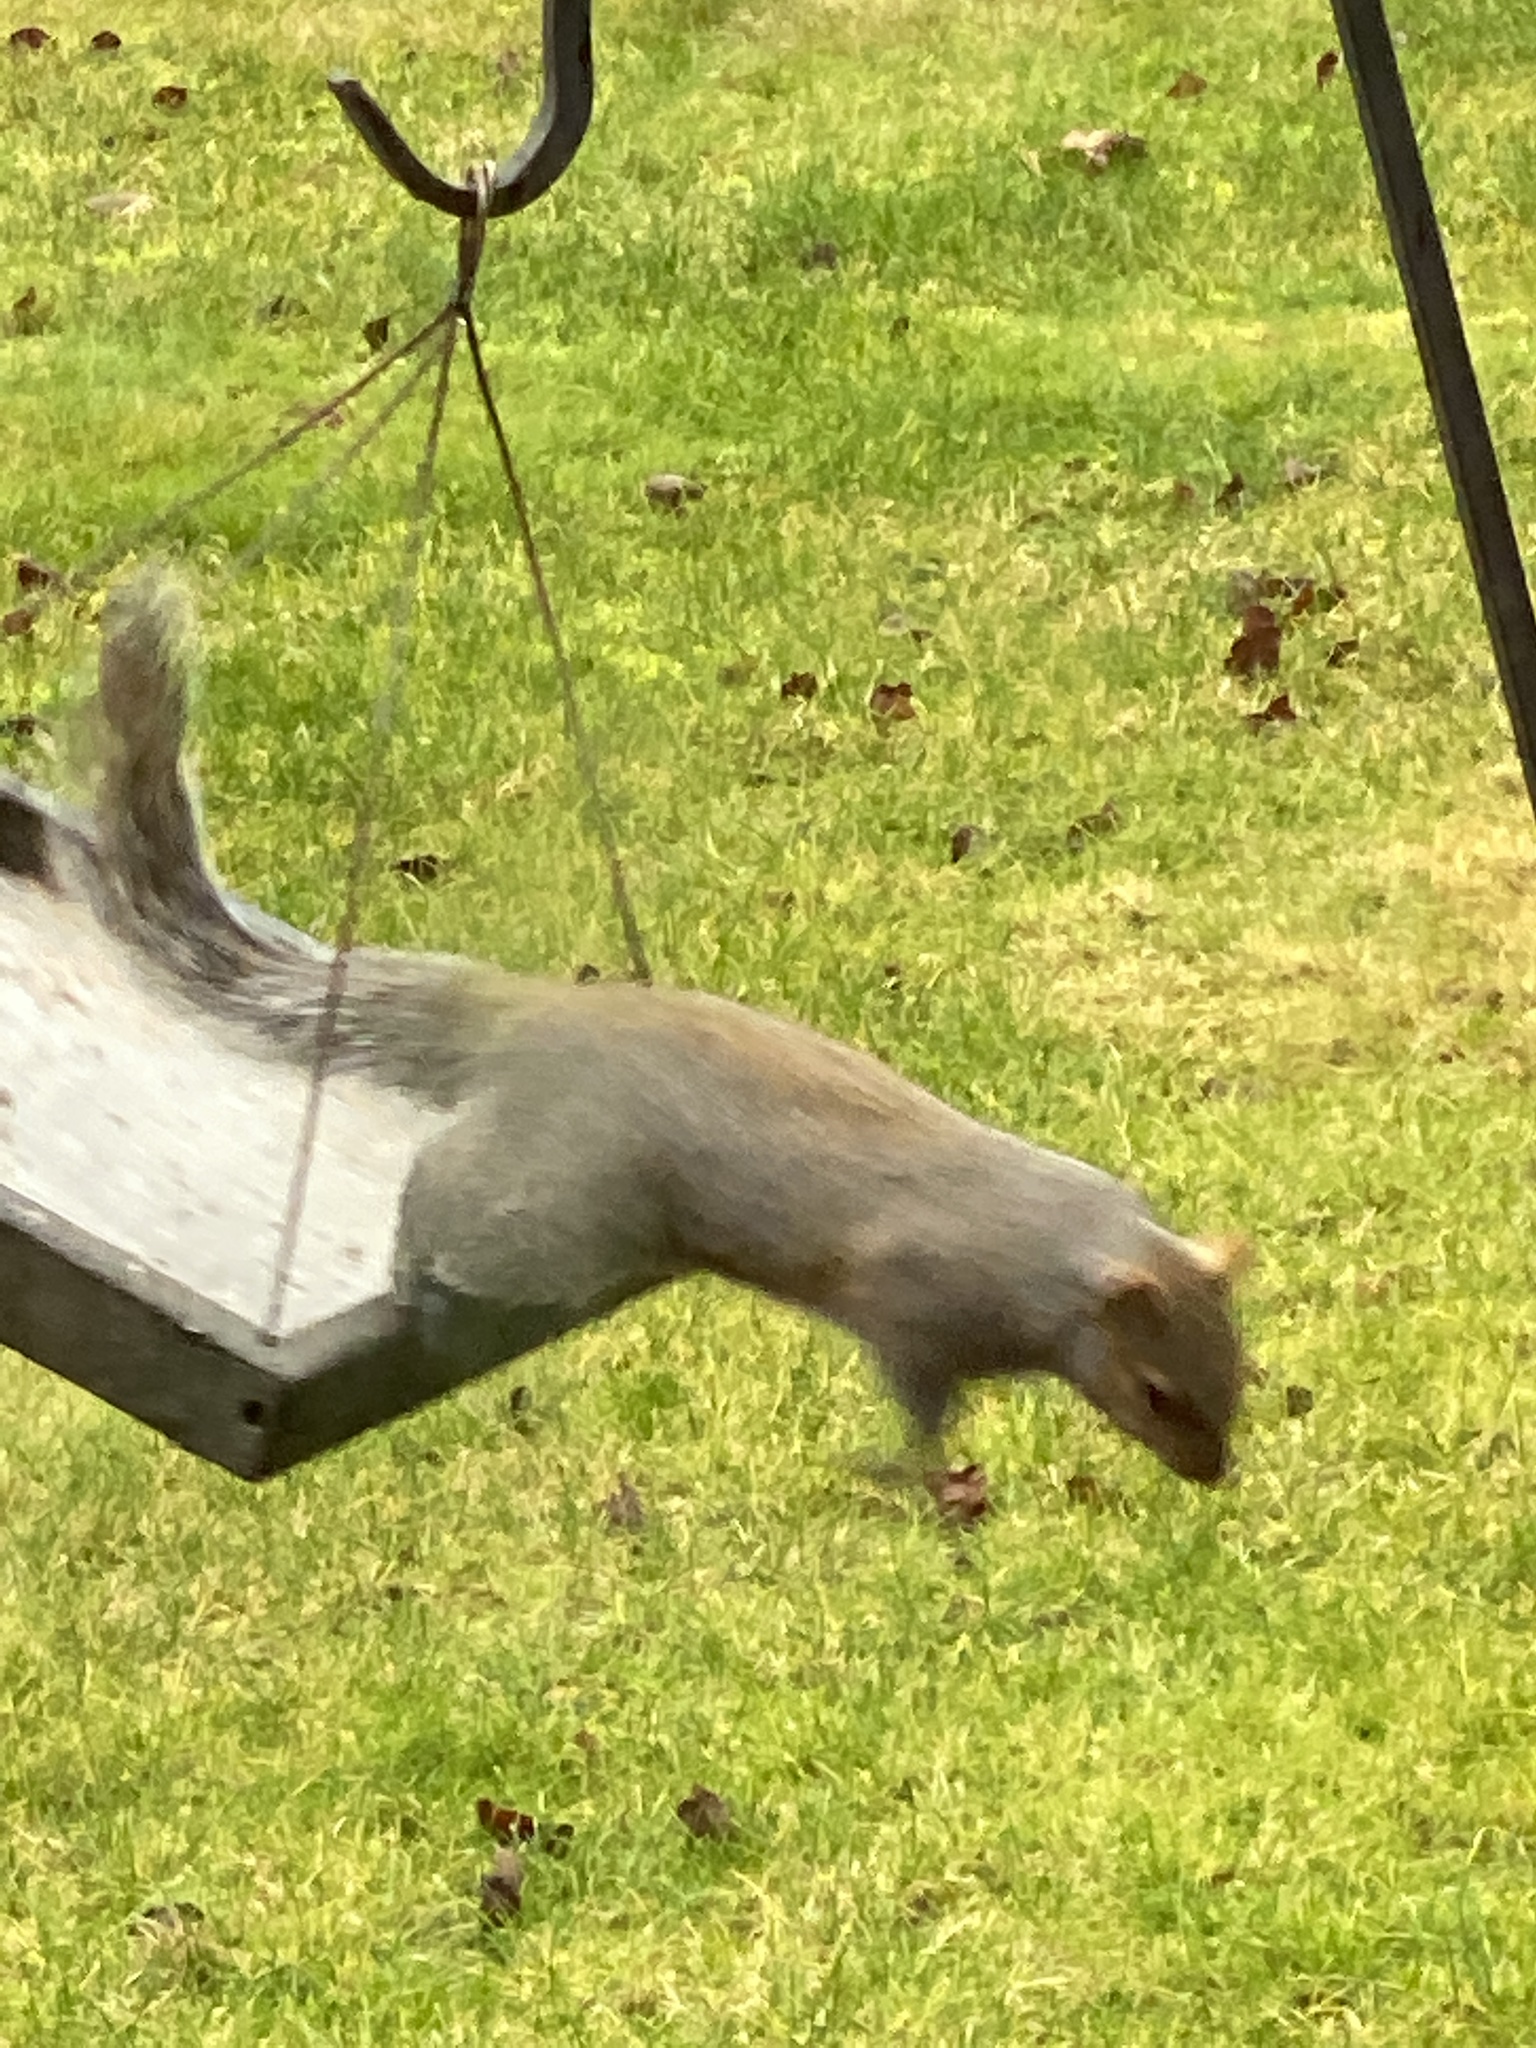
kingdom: Animalia
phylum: Chordata
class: Mammalia
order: Rodentia
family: Sciuridae
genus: Sciurus
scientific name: Sciurus carolinensis
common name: Eastern gray squirrel
